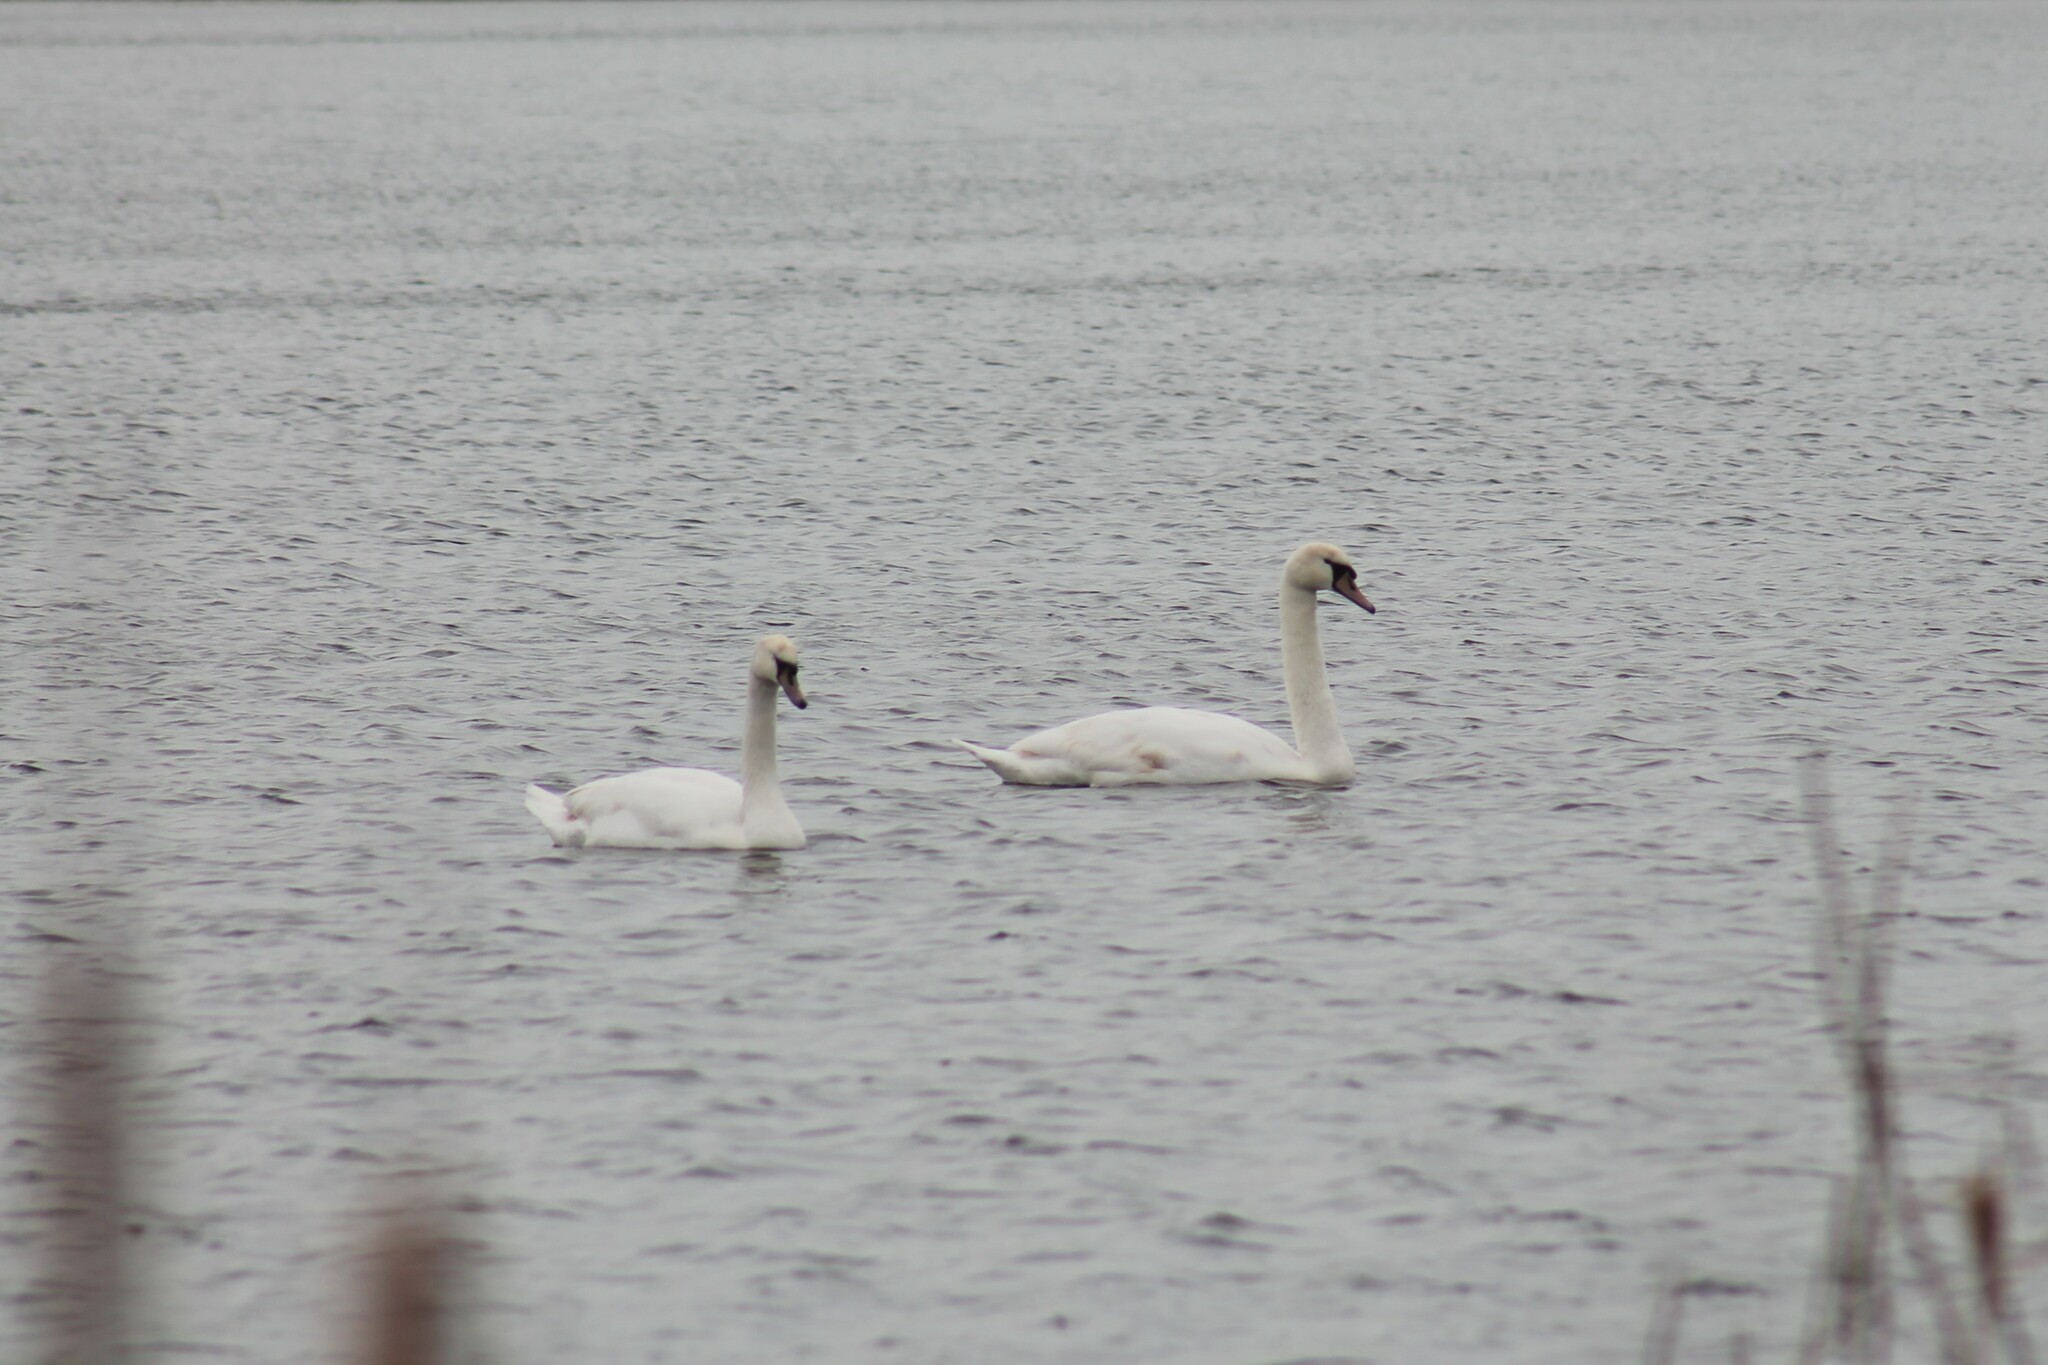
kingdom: Animalia
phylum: Chordata
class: Aves
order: Anseriformes
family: Anatidae
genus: Cygnus
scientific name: Cygnus olor
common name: Mute swan
